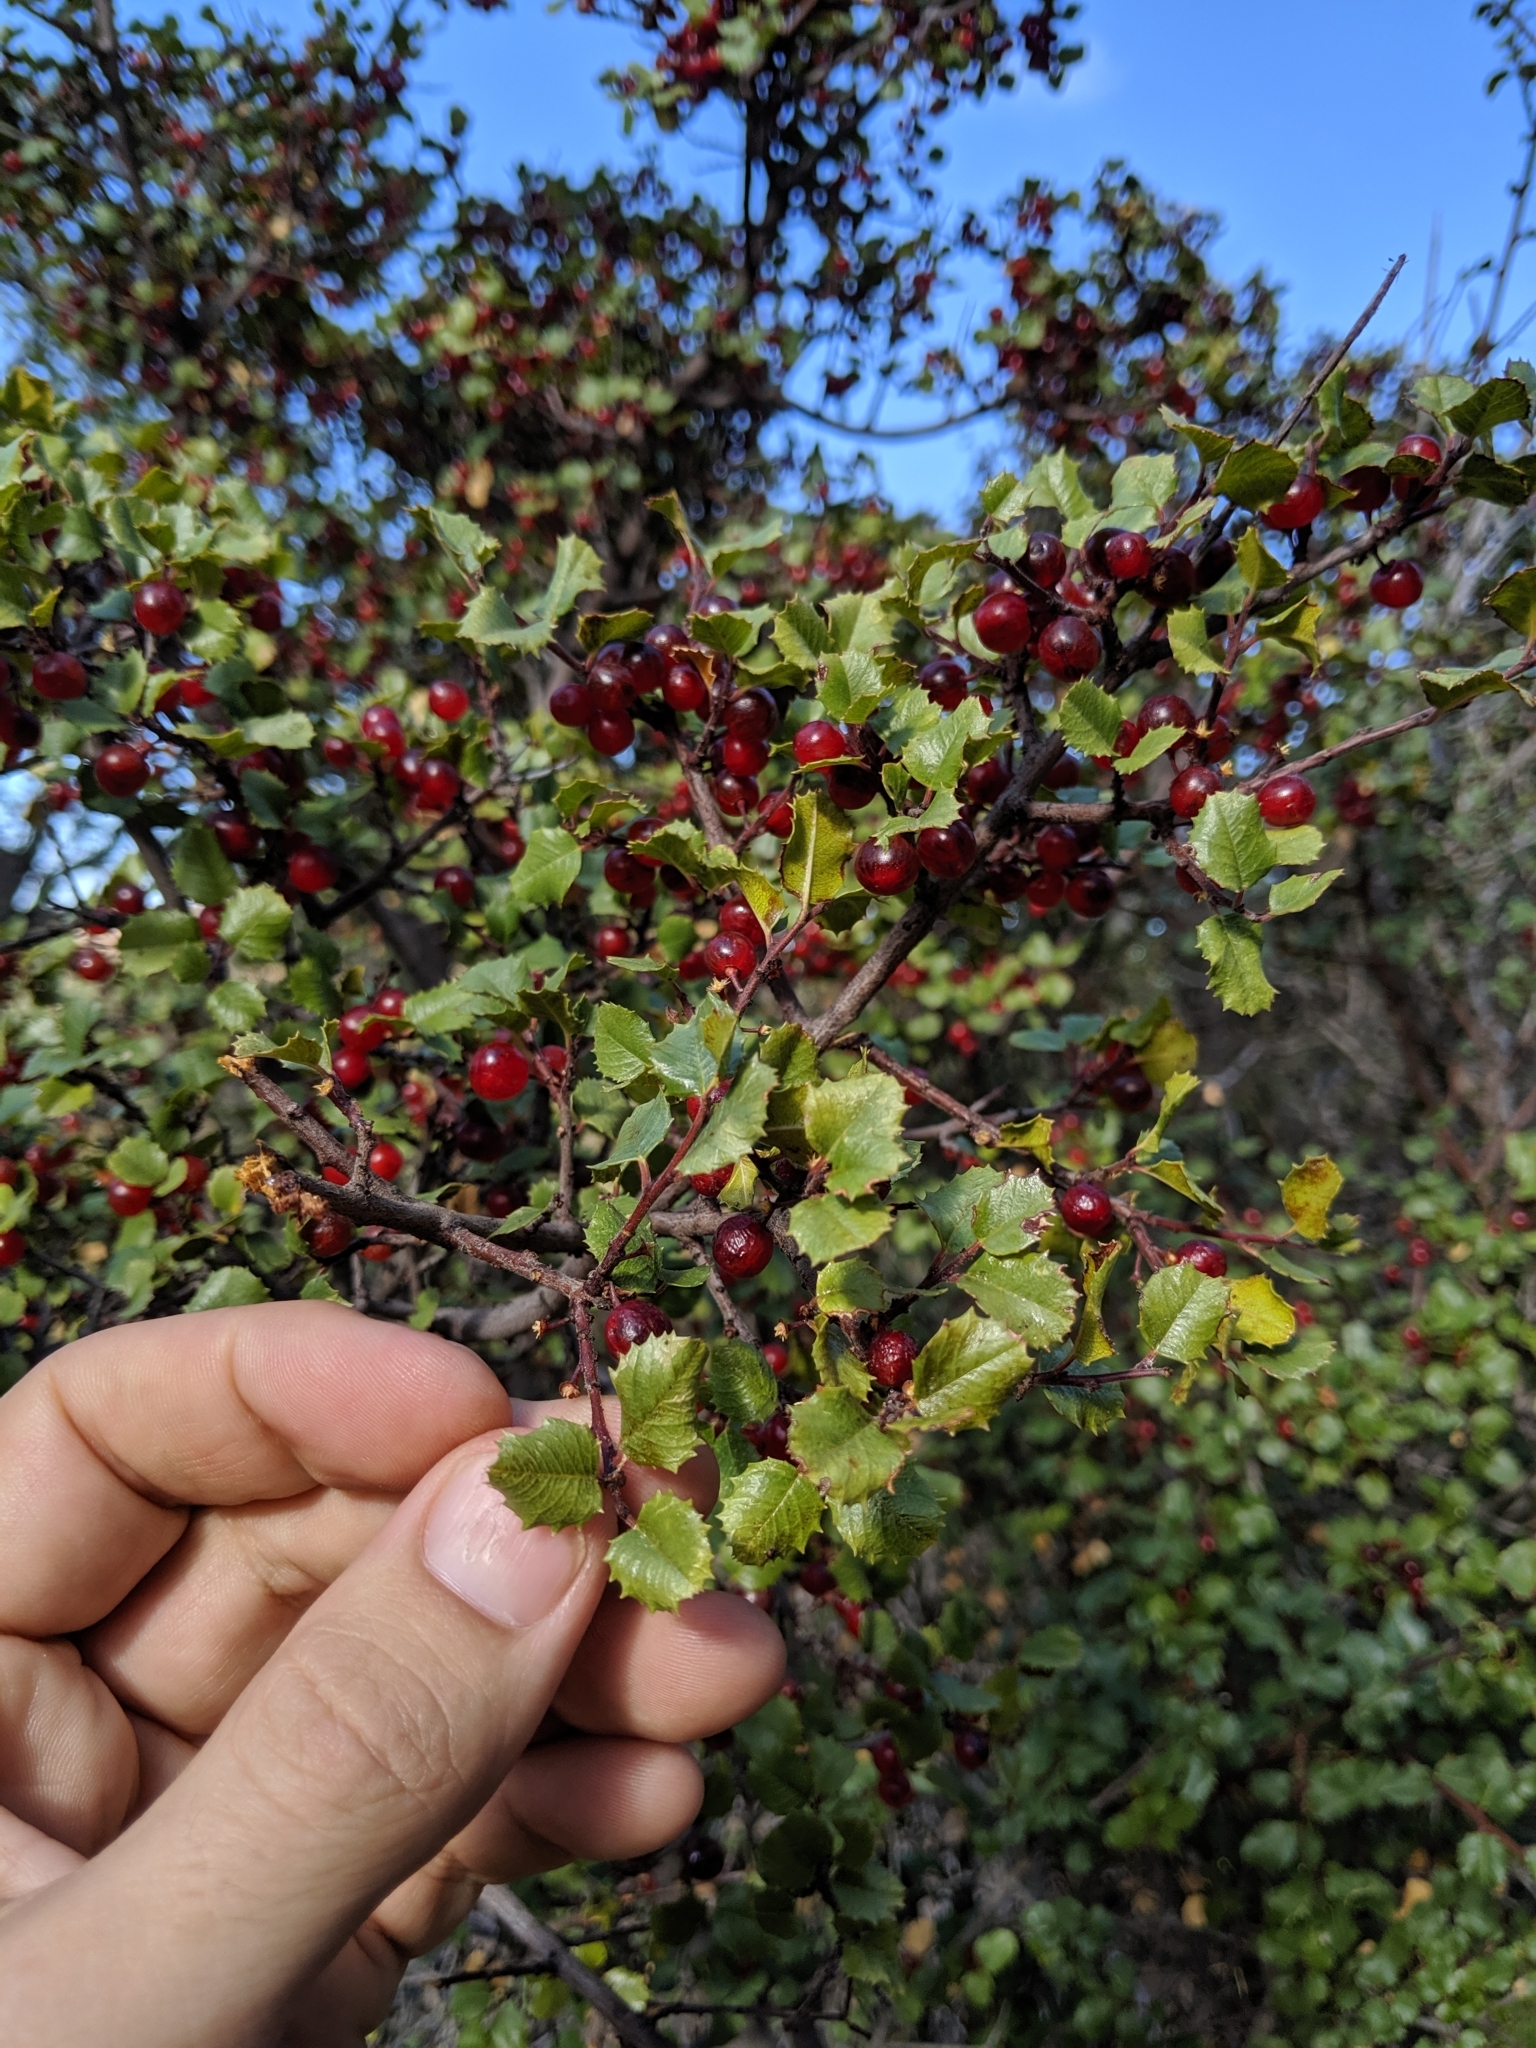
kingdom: Plantae
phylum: Tracheophyta
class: Magnoliopsida
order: Rosales
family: Rhamnaceae
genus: Endotropis
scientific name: Endotropis crocea
